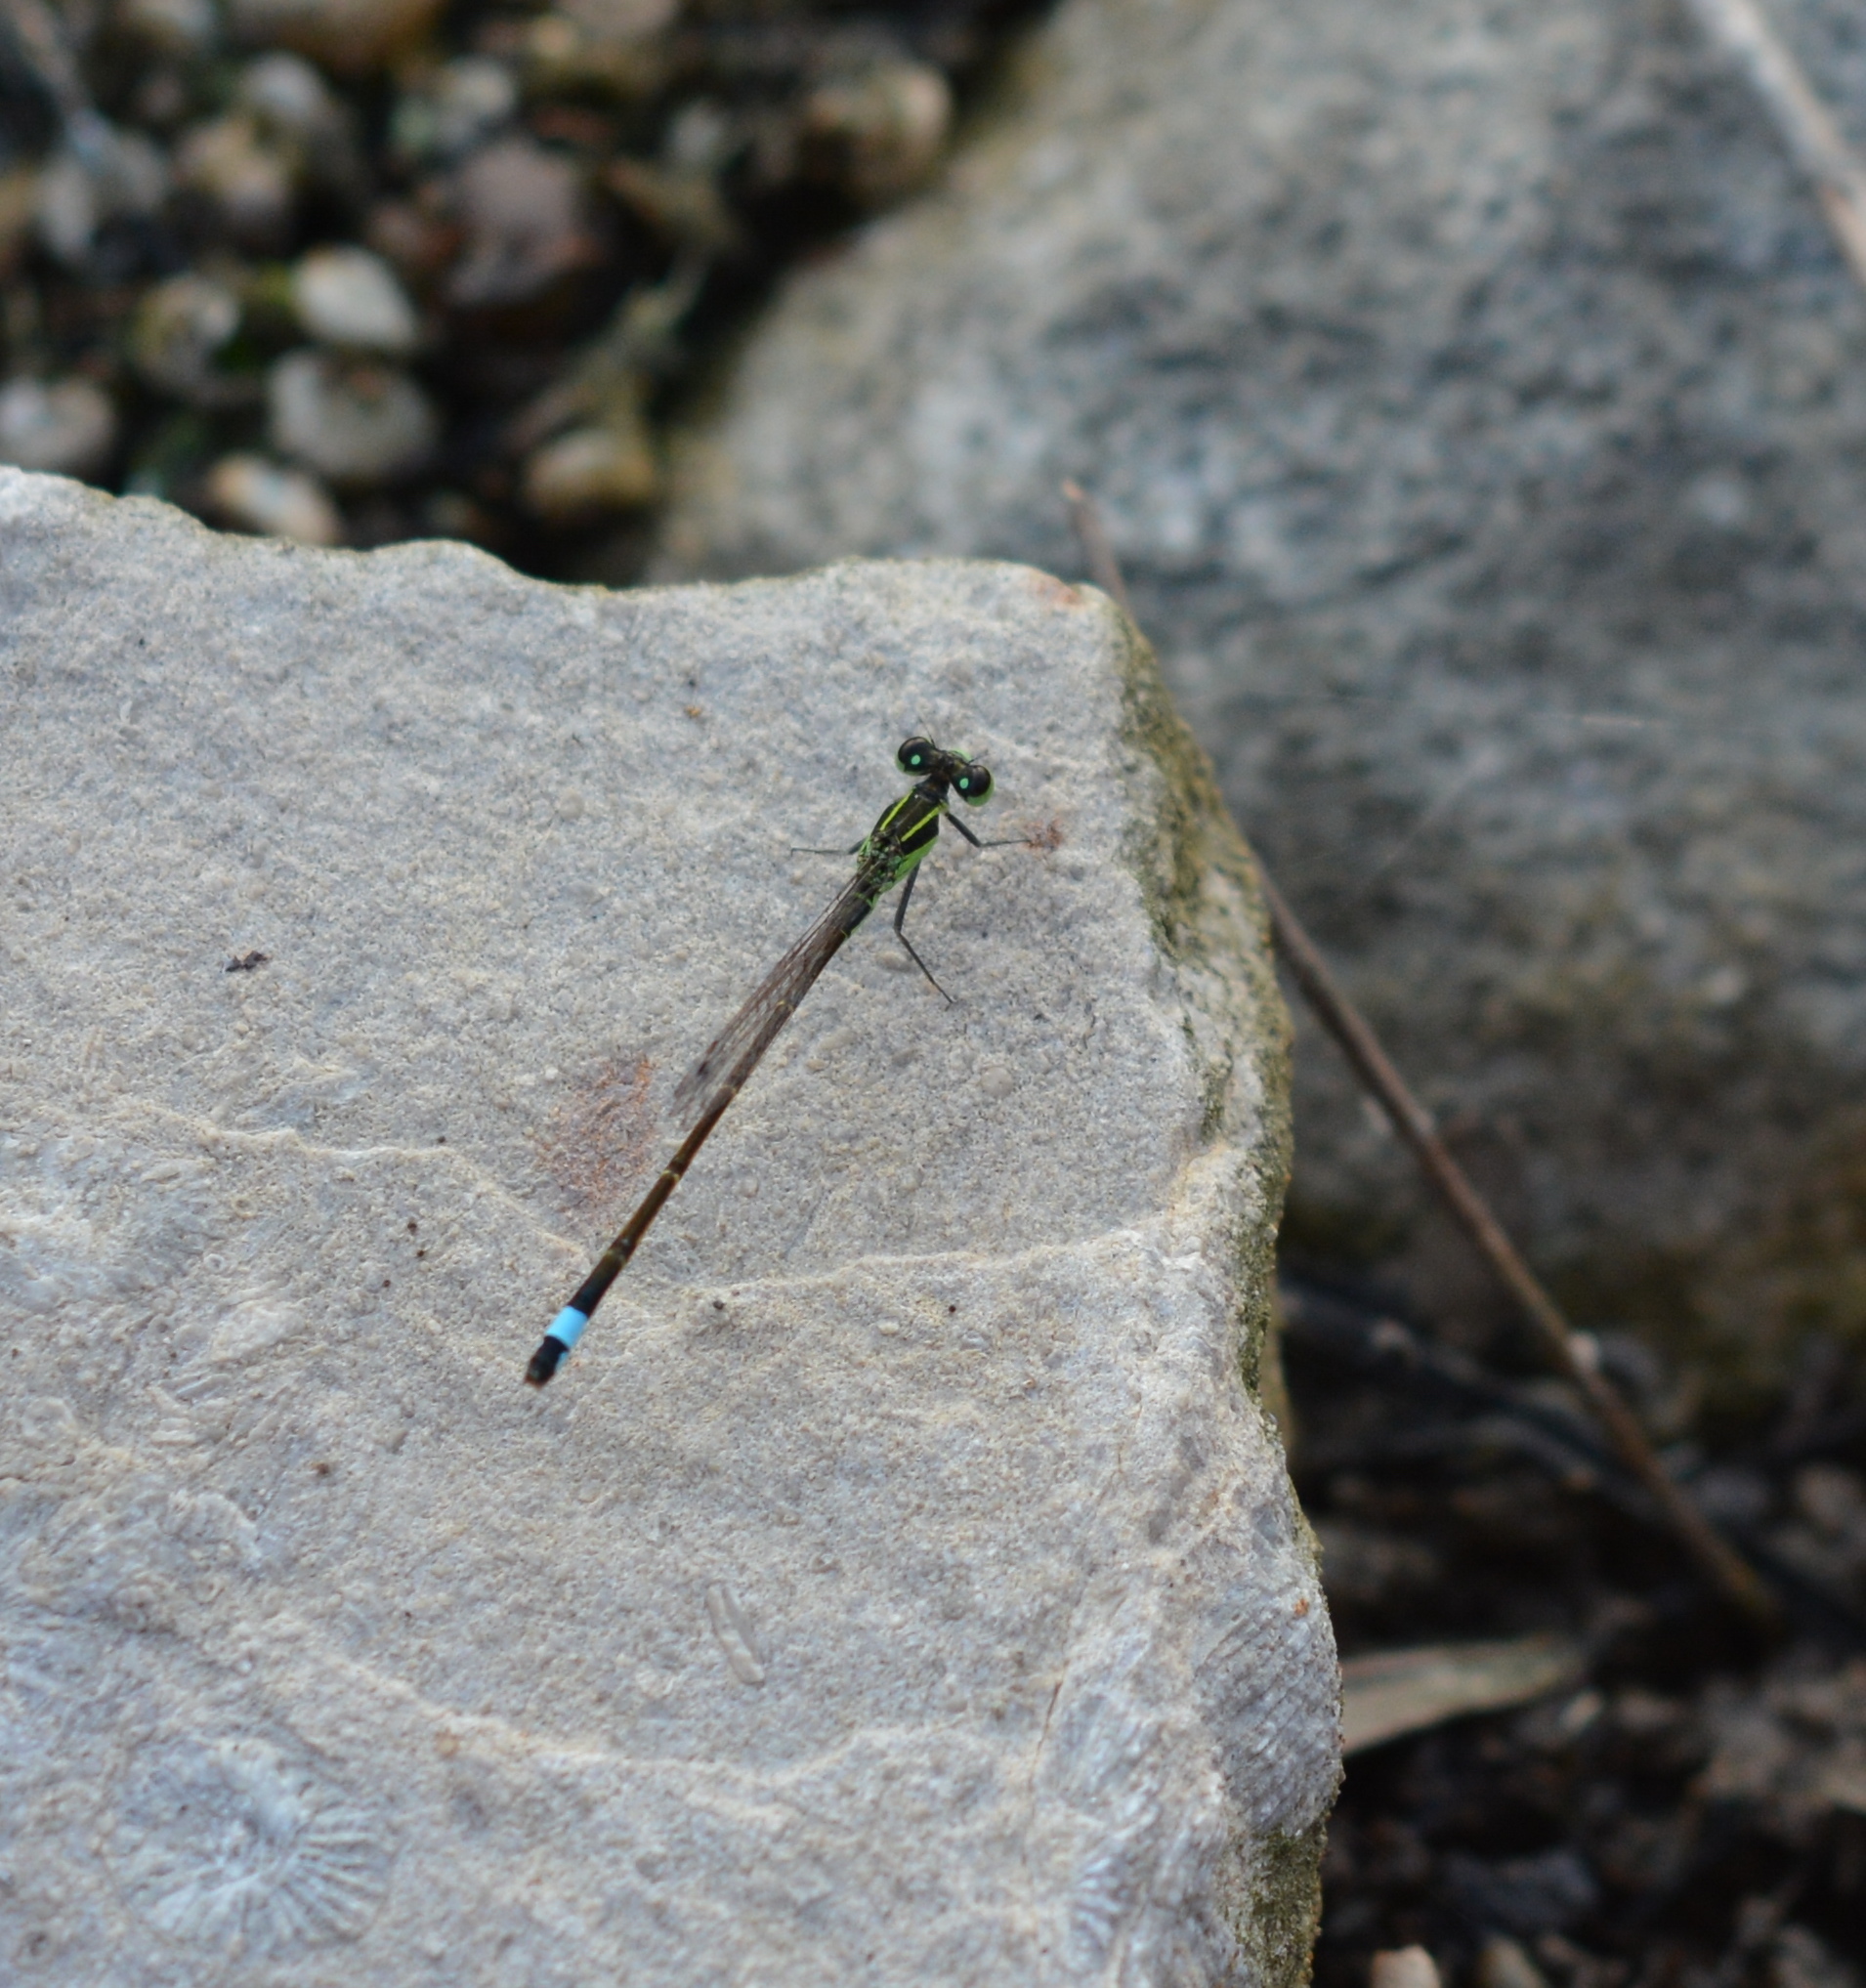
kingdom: Animalia
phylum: Arthropoda
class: Insecta
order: Odonata
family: Coenagrionidae
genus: Ischnura
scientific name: Ischnura ramburii
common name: Rambur's forktail
